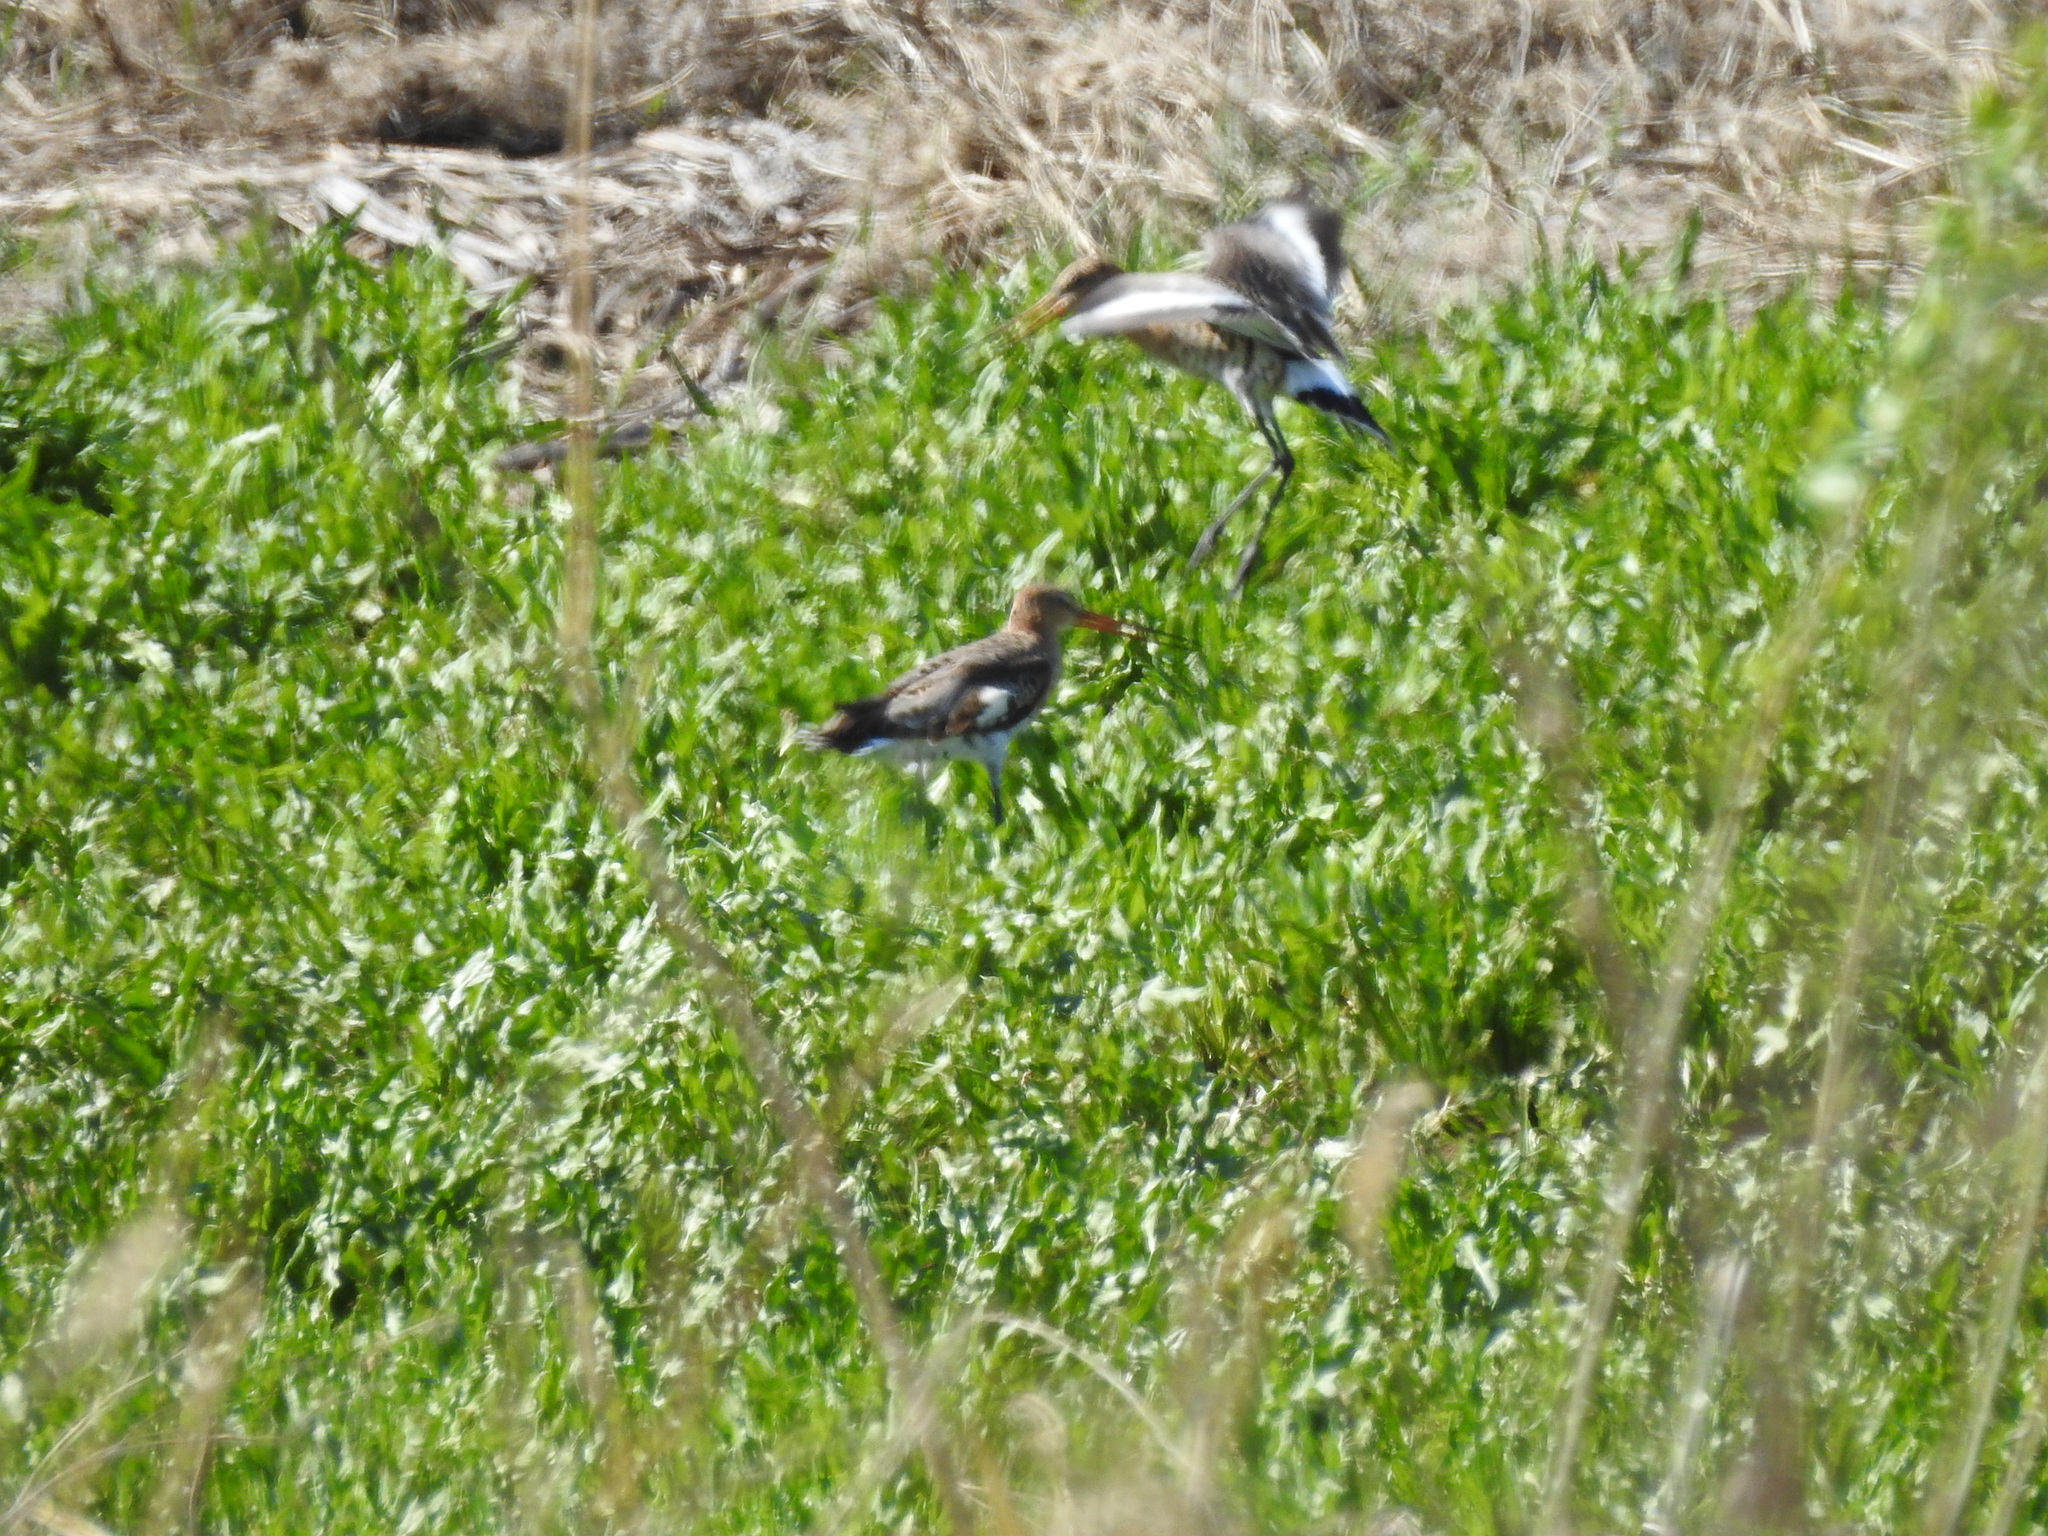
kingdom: Animalia
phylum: Chordata
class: Aves
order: Charadriiformes
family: Scolopacidae
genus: Limosa
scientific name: Limosa limosa
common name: Black-tailed godwit
